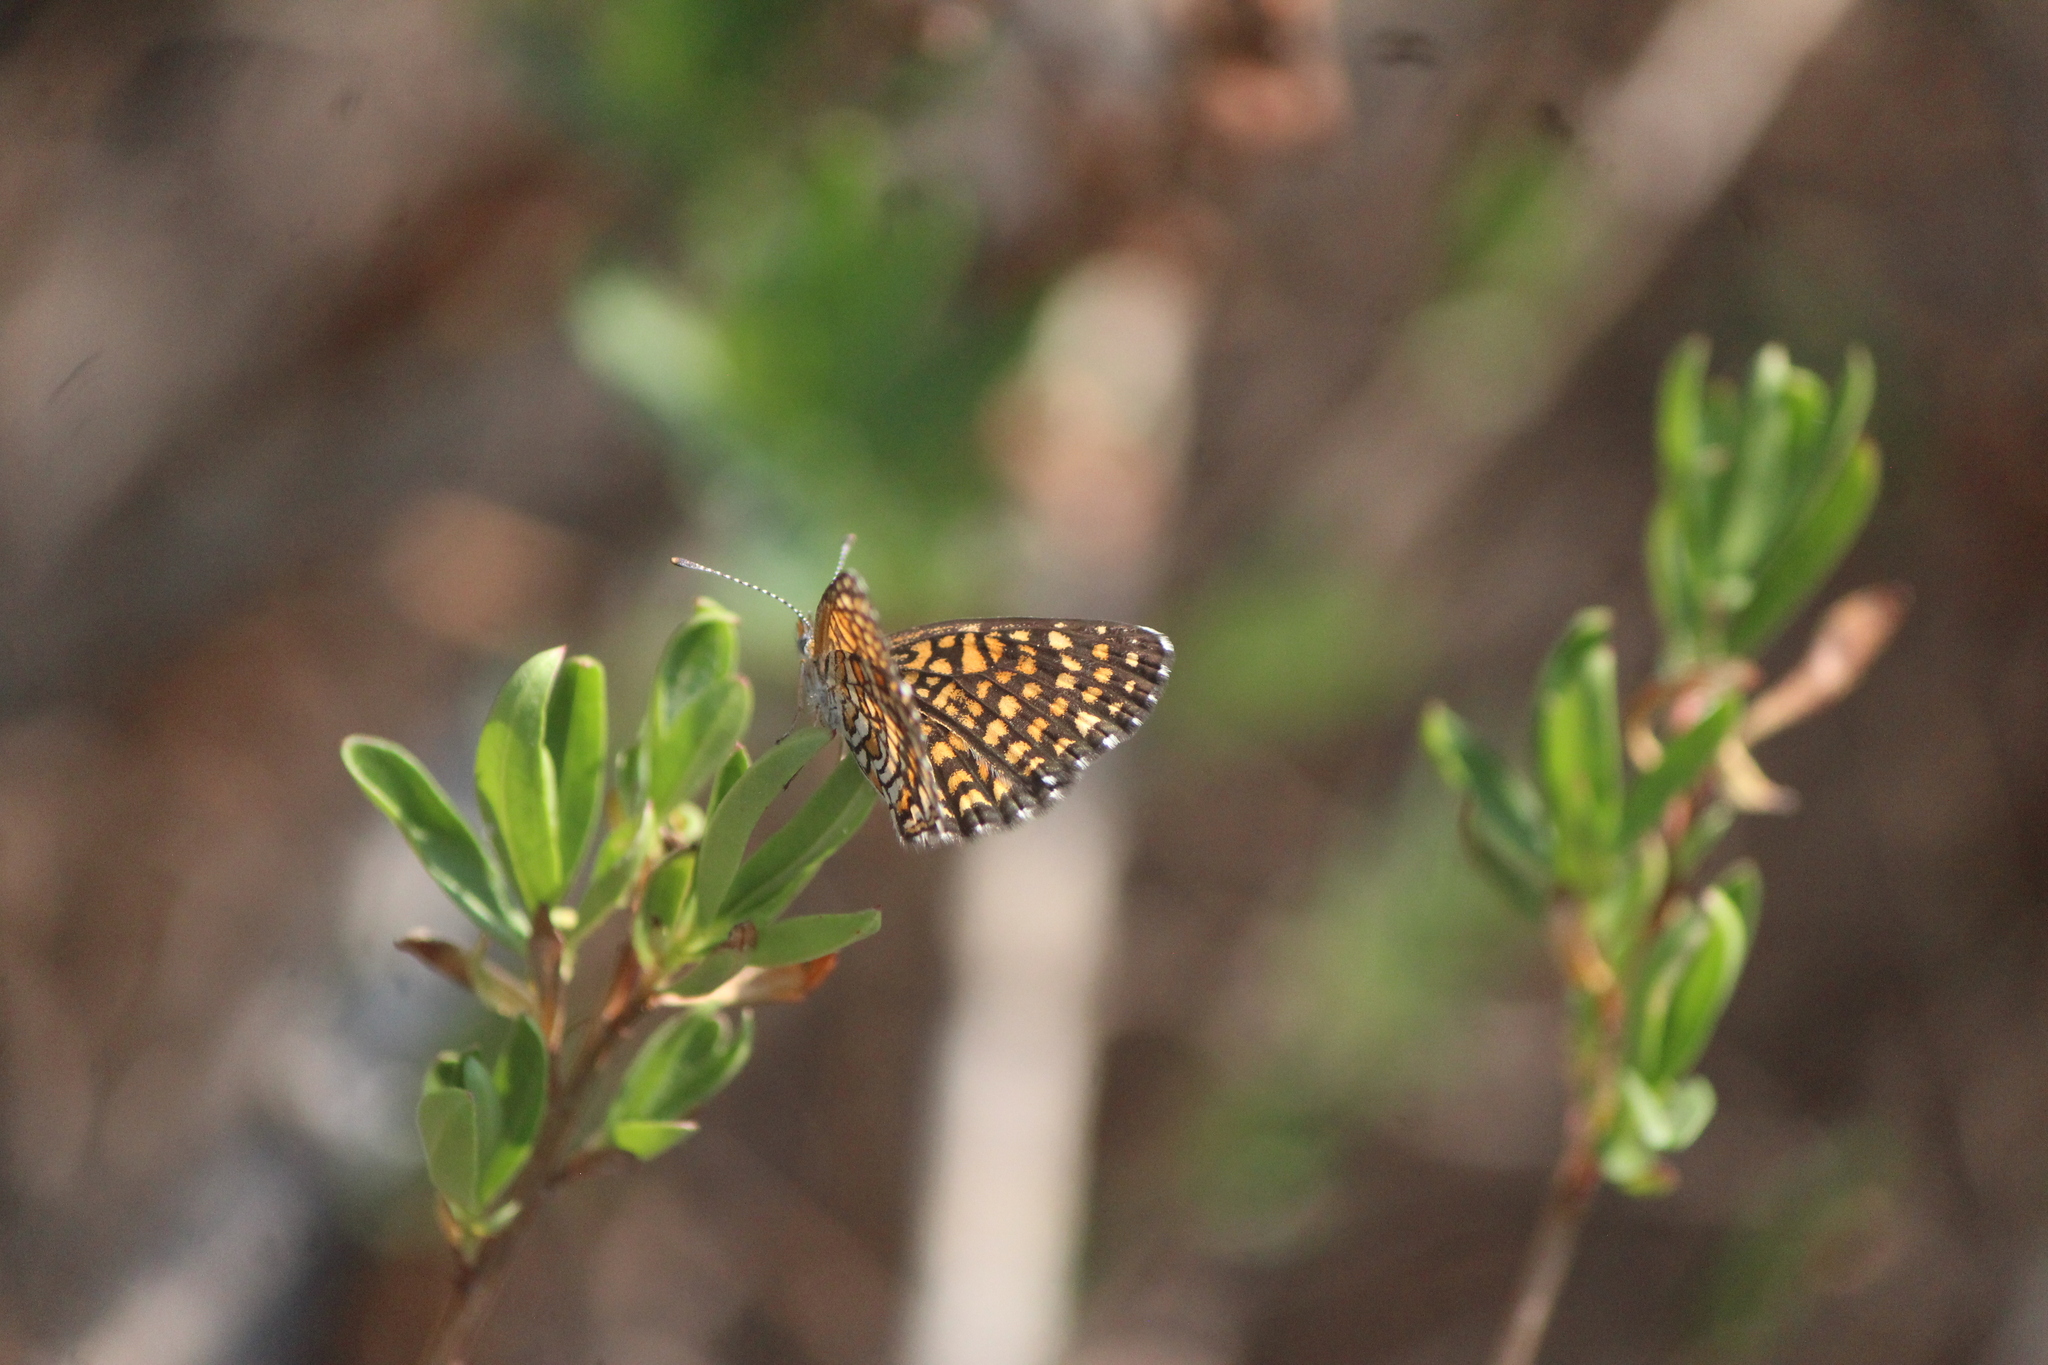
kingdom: Animalia
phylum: Arthropoda
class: Insecta
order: Lepidoptera
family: Nymphalidae
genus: Texola
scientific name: Texola elada
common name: Elada checkerspot
